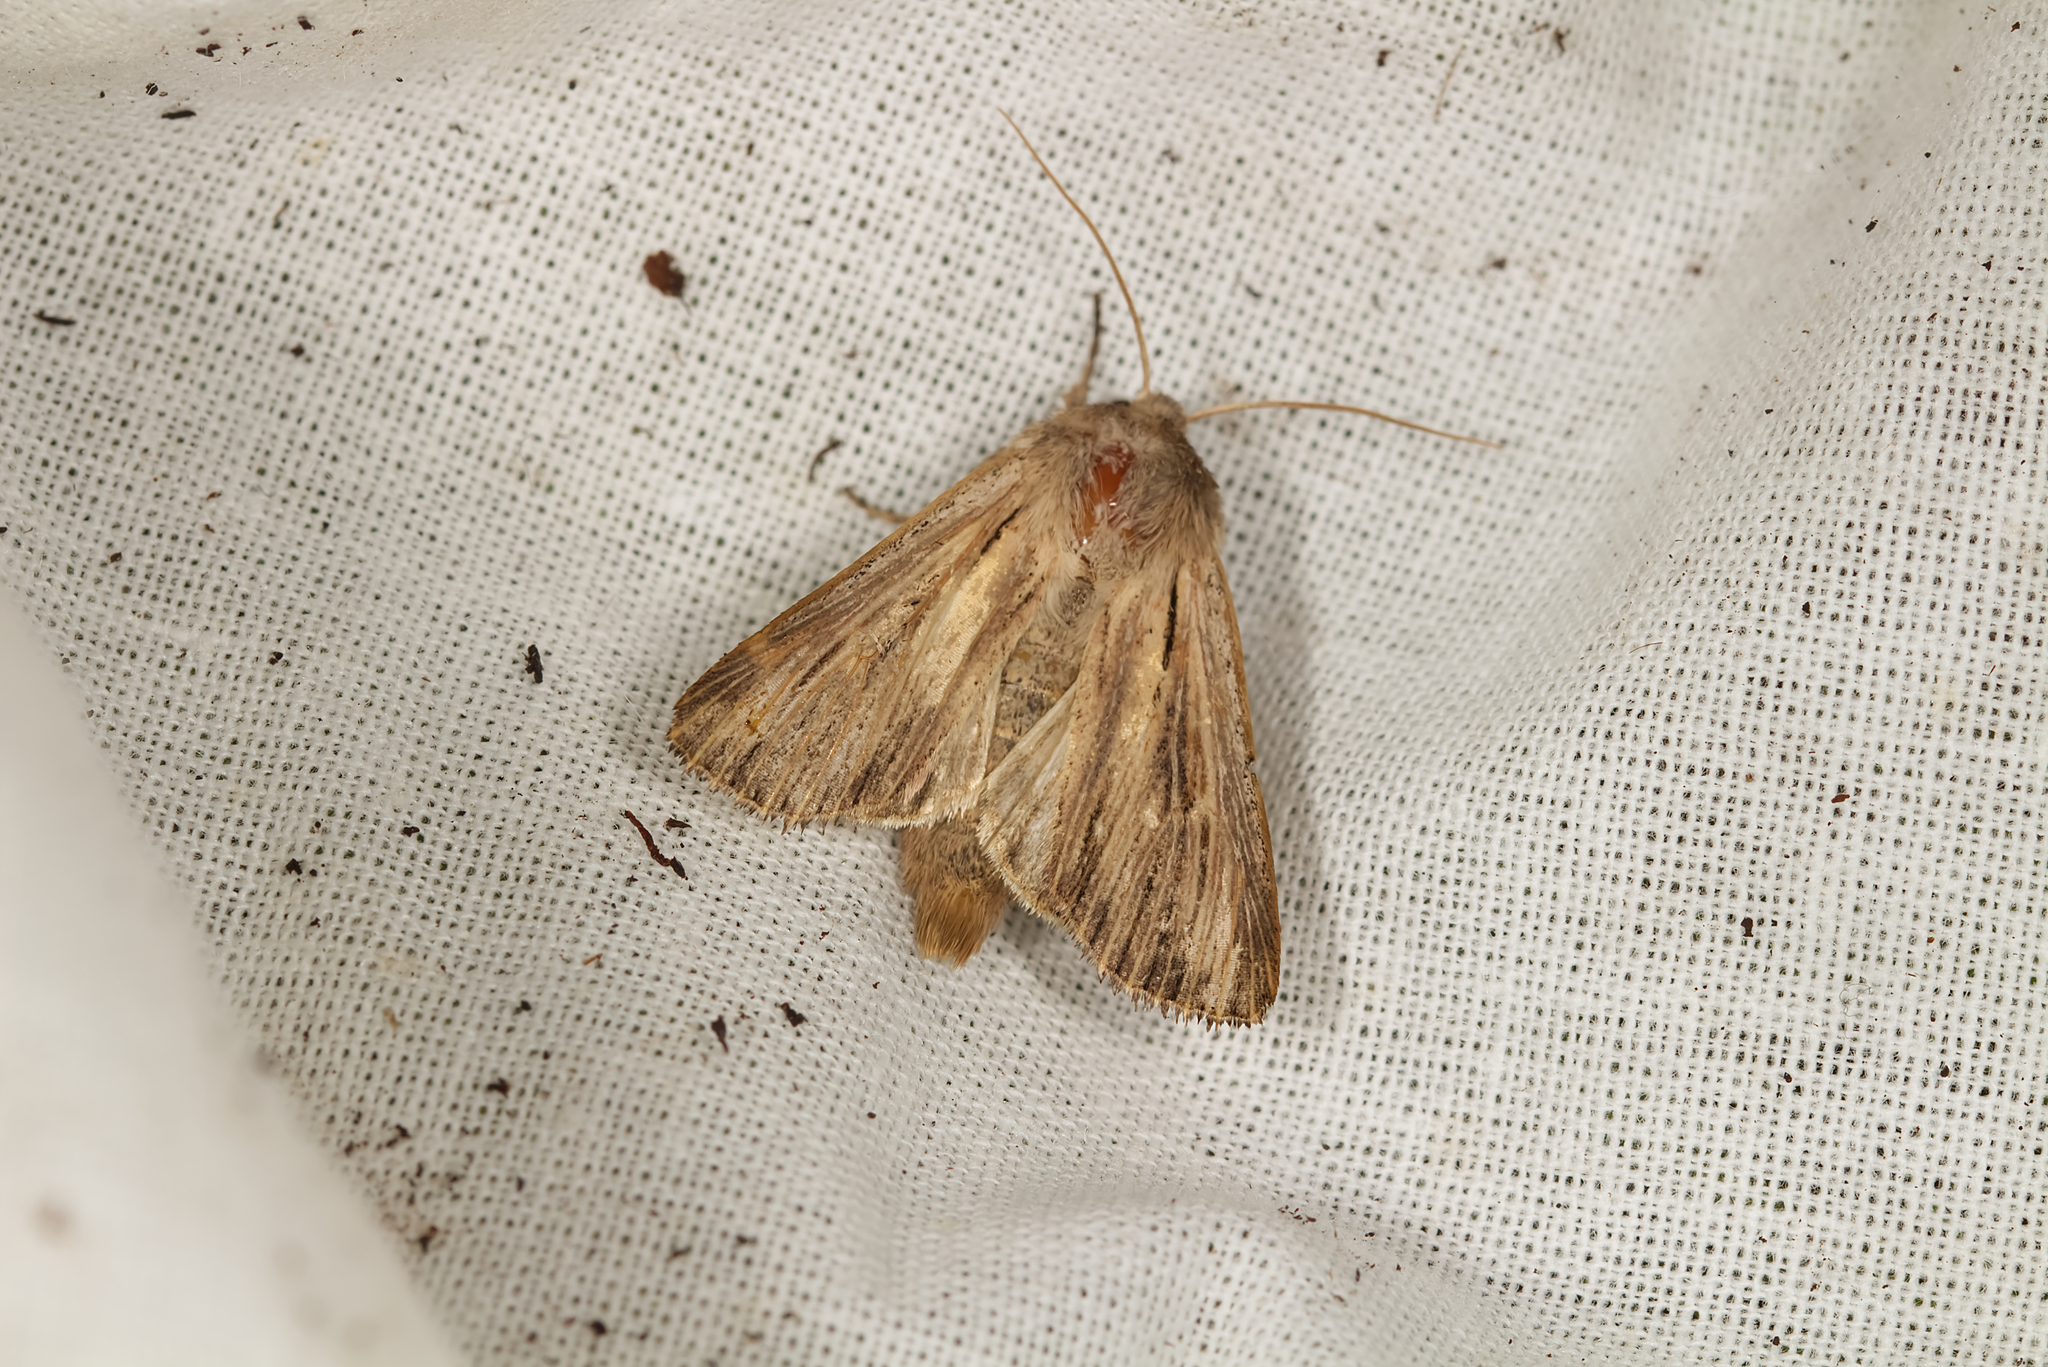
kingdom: Animalia
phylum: Arthropoda
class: Insecta
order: Lepidoptera
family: Noctuidae
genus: Leucania
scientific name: Leucania comma
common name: Shoulder-striped wainscot
